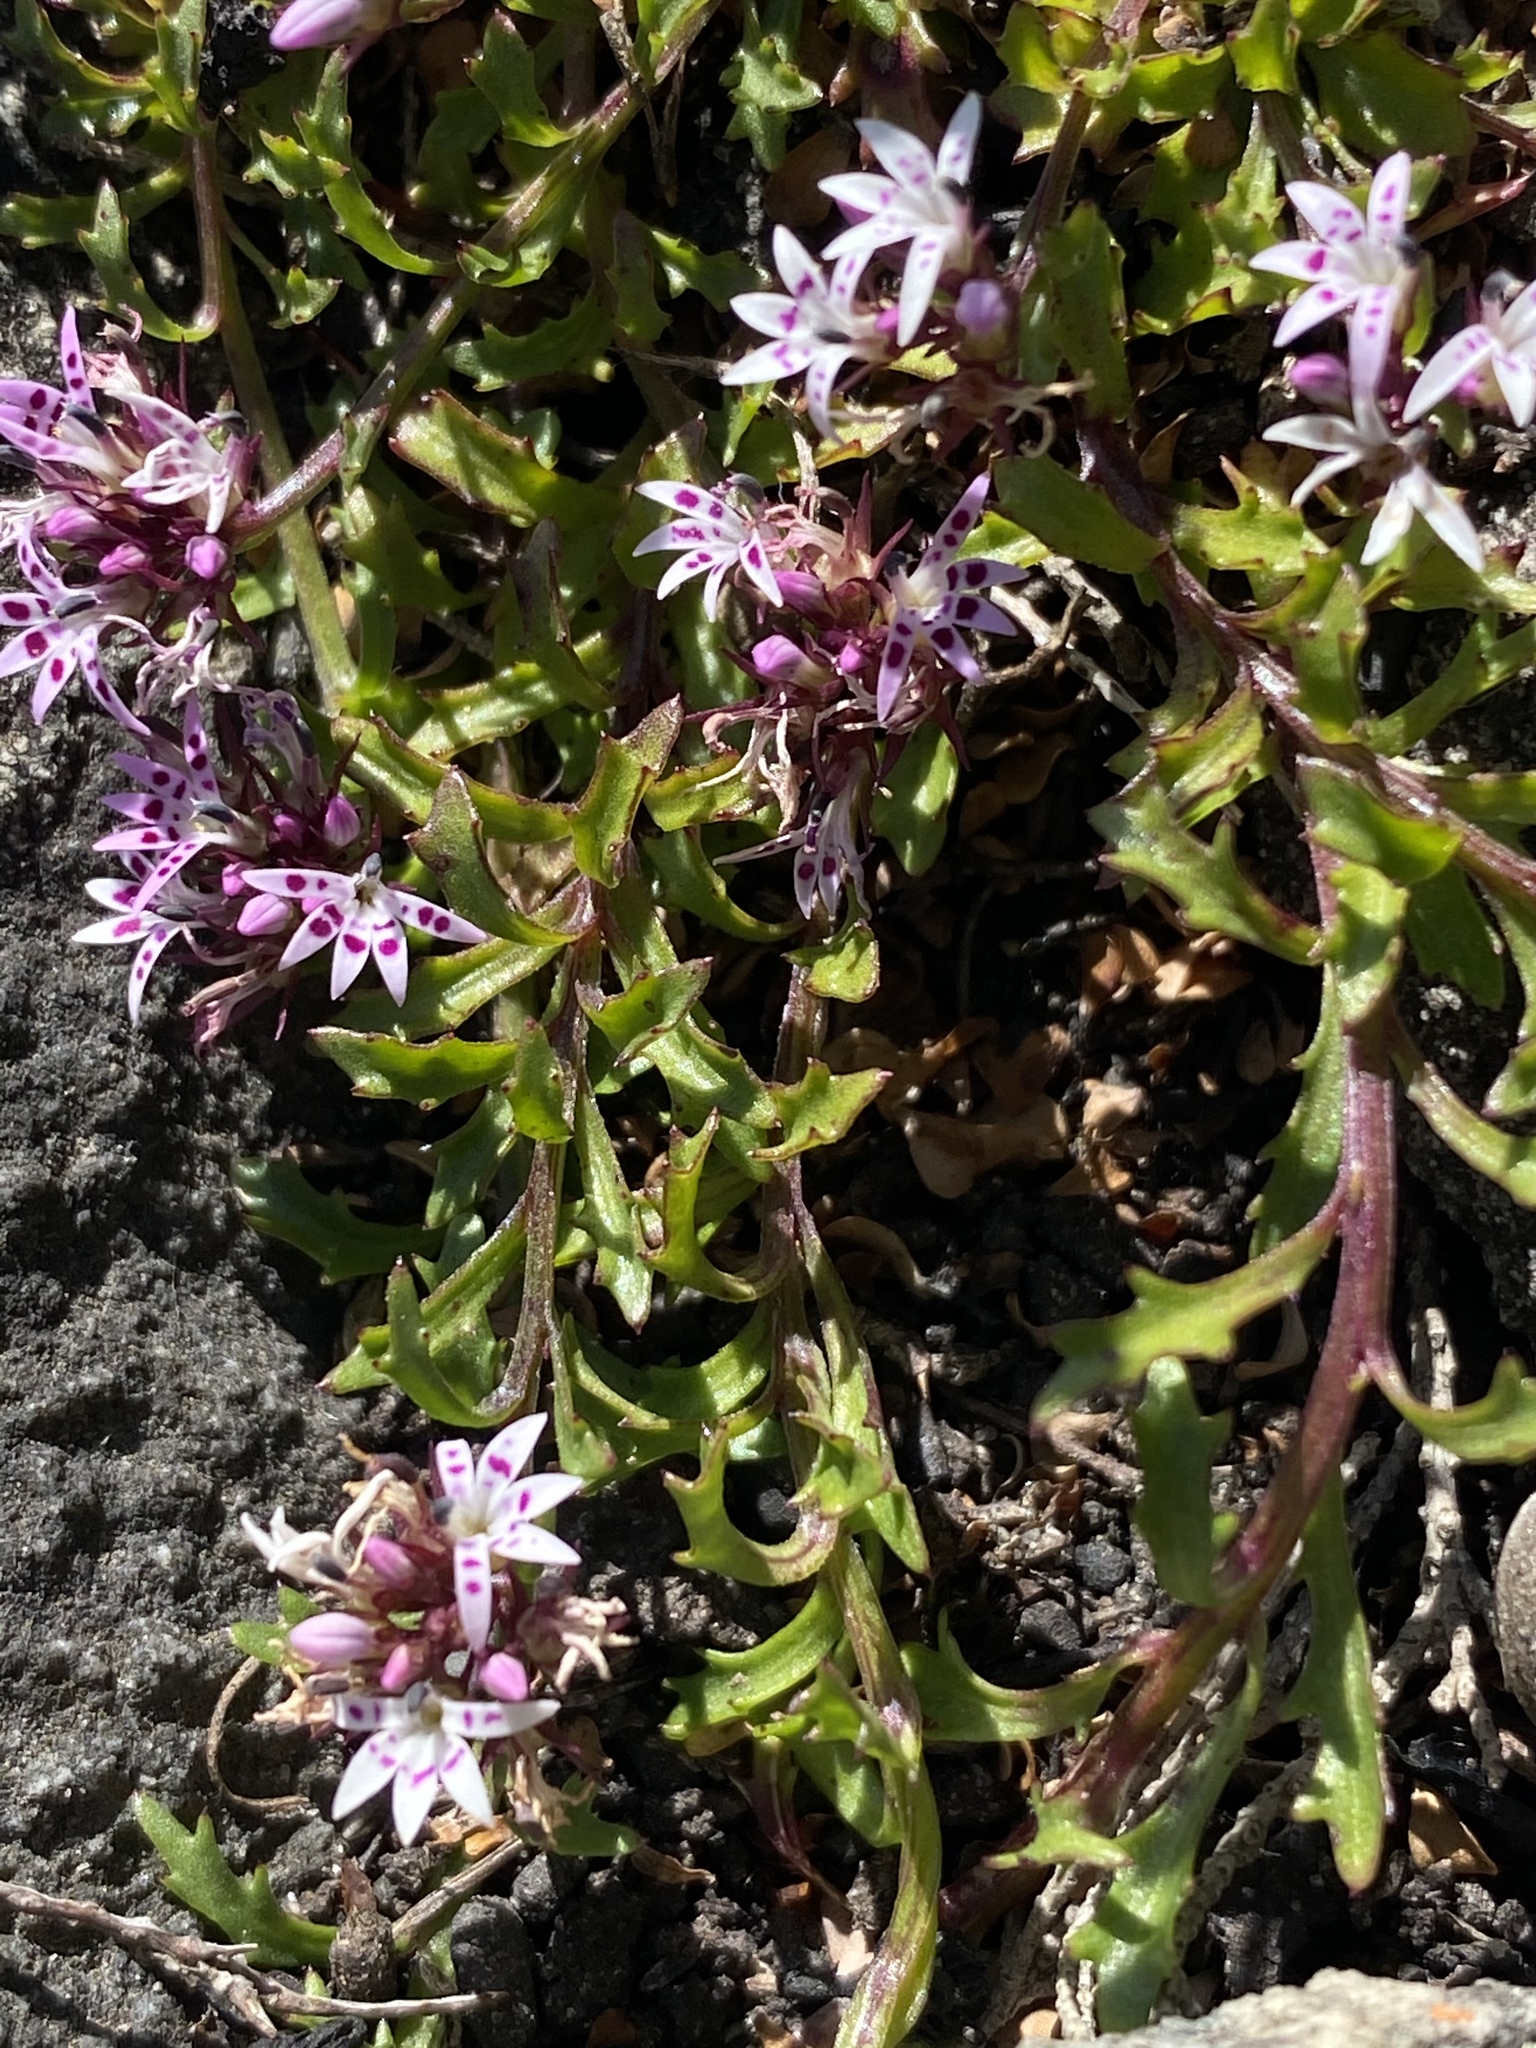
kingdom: Plantae
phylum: Tracheophyta
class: Magnoliopsida
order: Asterales
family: Campanulaceae
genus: Lobelia
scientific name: Lobelia jasionoides
